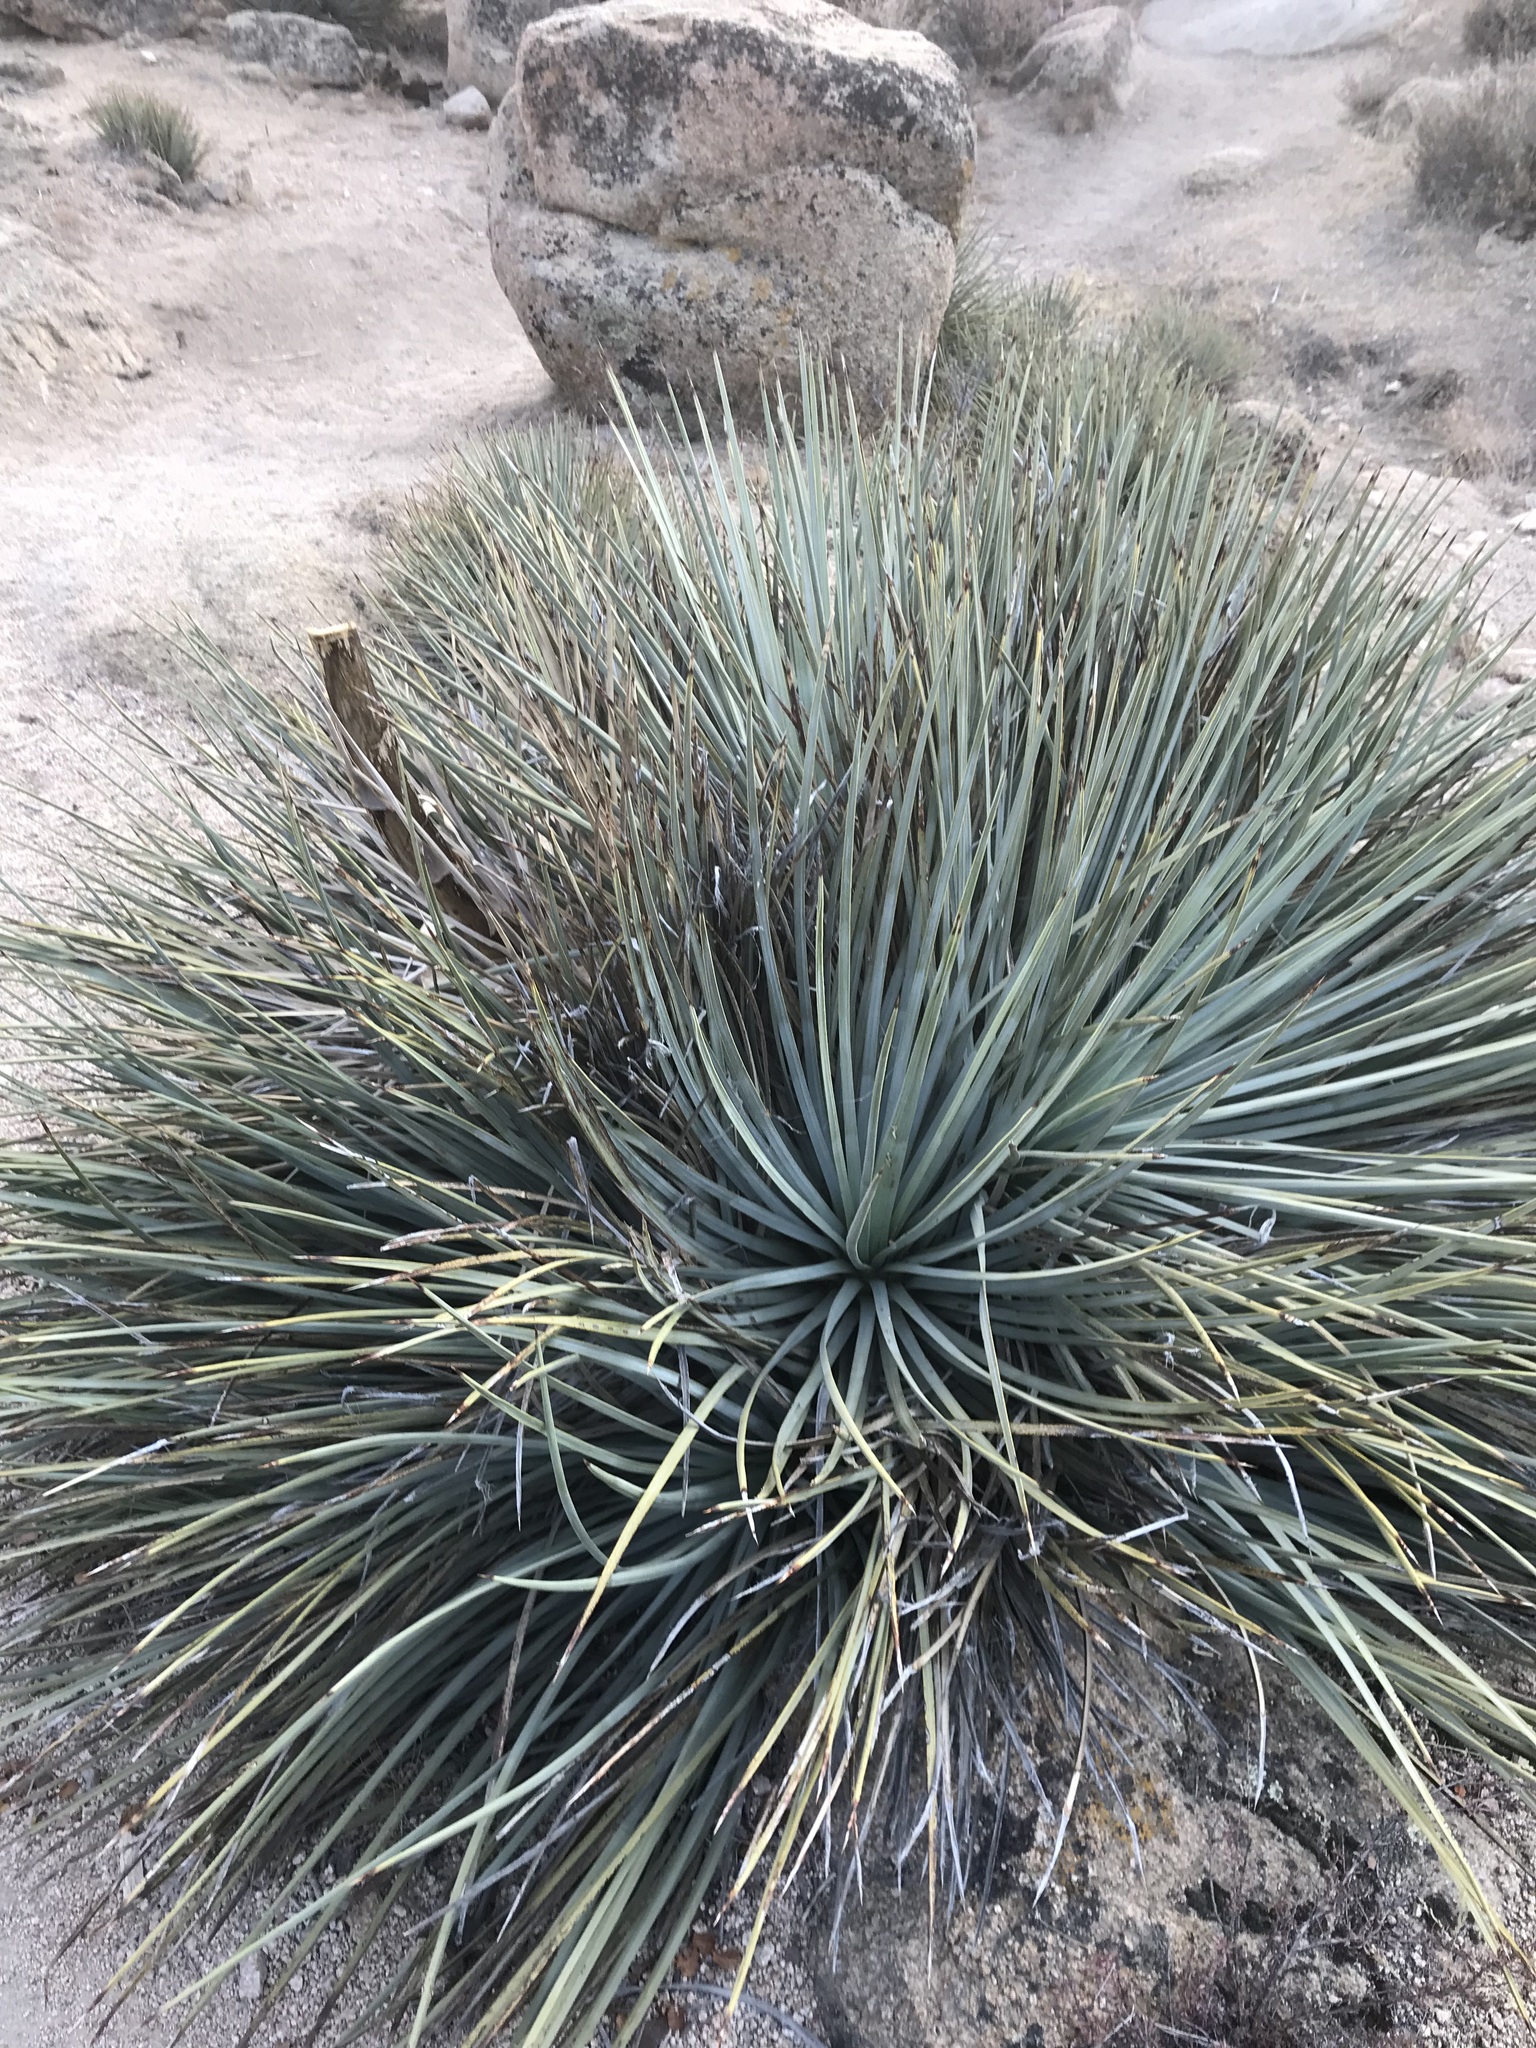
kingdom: Plantae
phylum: Tracheophyta
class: Liliopsida
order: Asparagales
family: Asparagaceae
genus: Hesperoyucca
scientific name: Hesperoyucca whipplei
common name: Our lord's-candle
